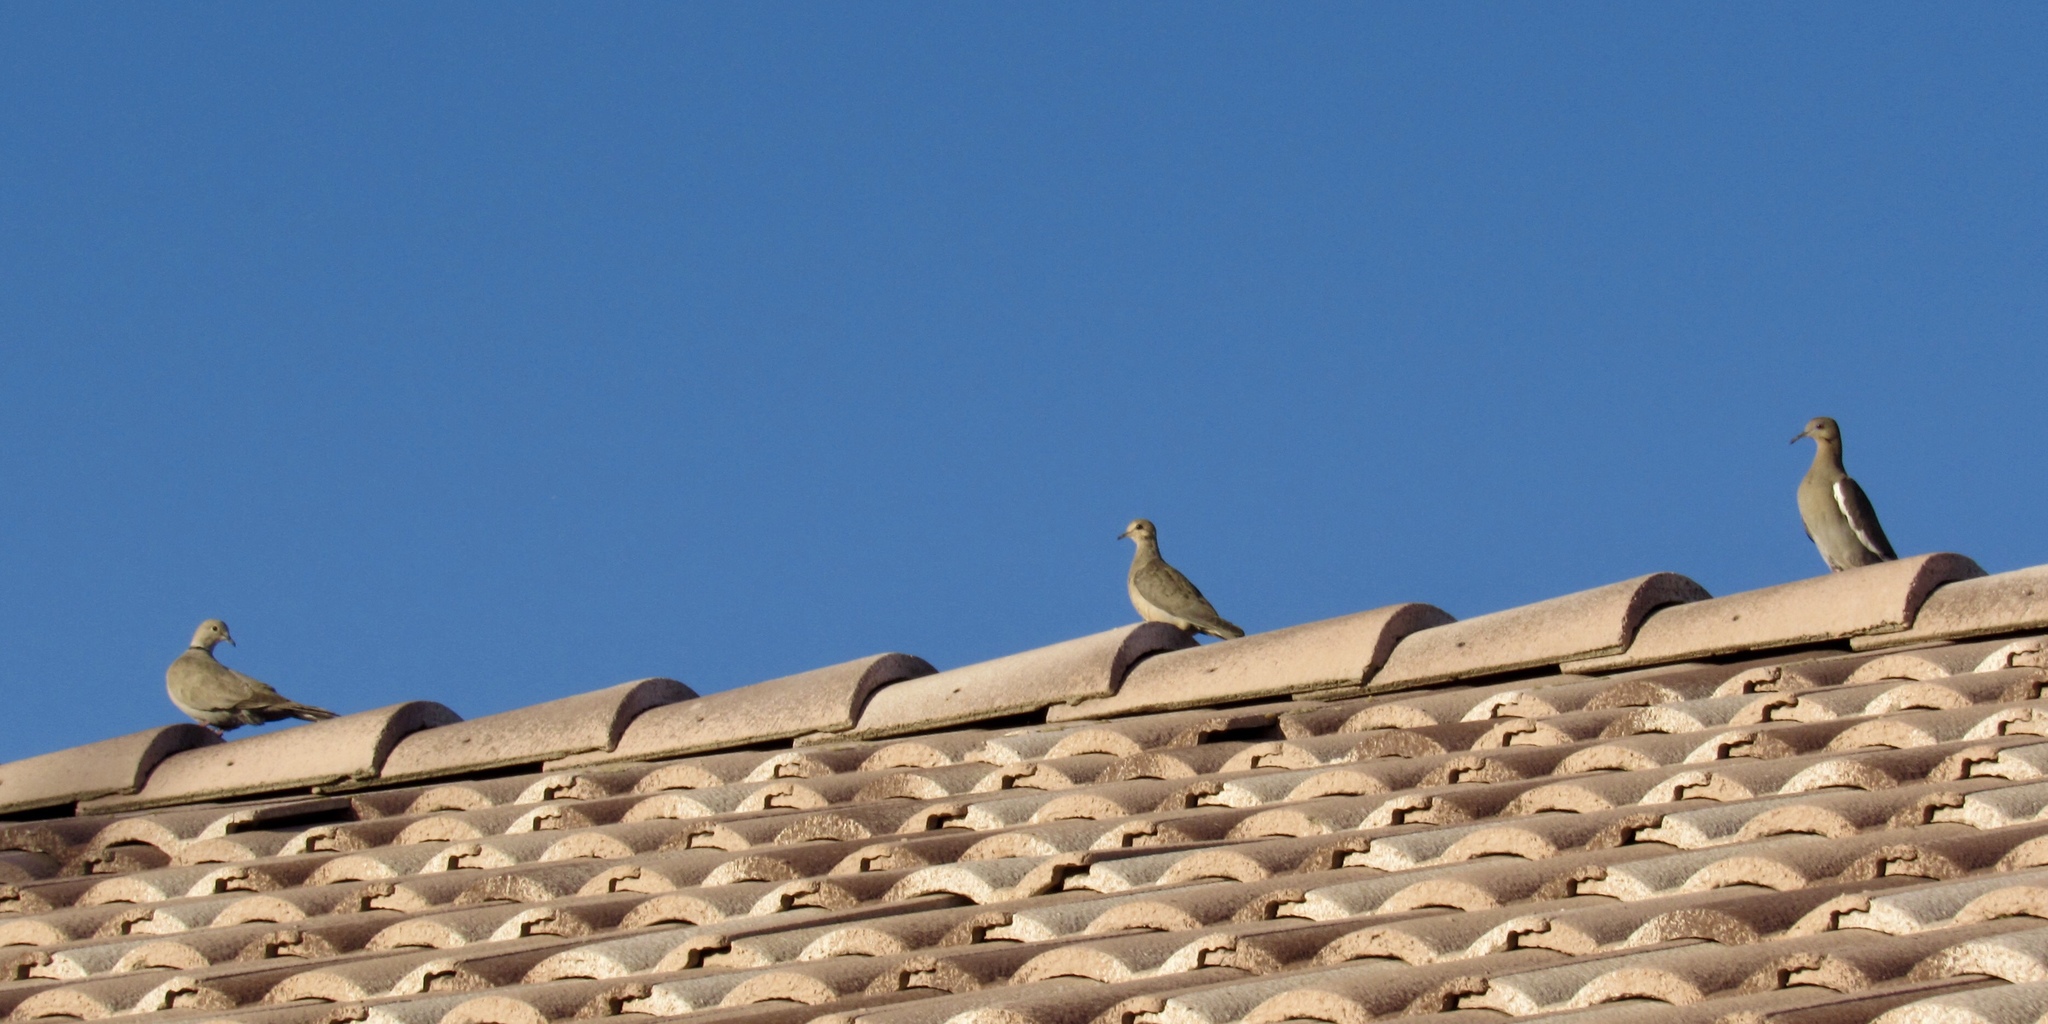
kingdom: Animalia
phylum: Chordata
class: Aves
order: Columbiformes
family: Columbidae
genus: Zenaida
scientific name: Zenaida asiatica
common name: White-winged dove
